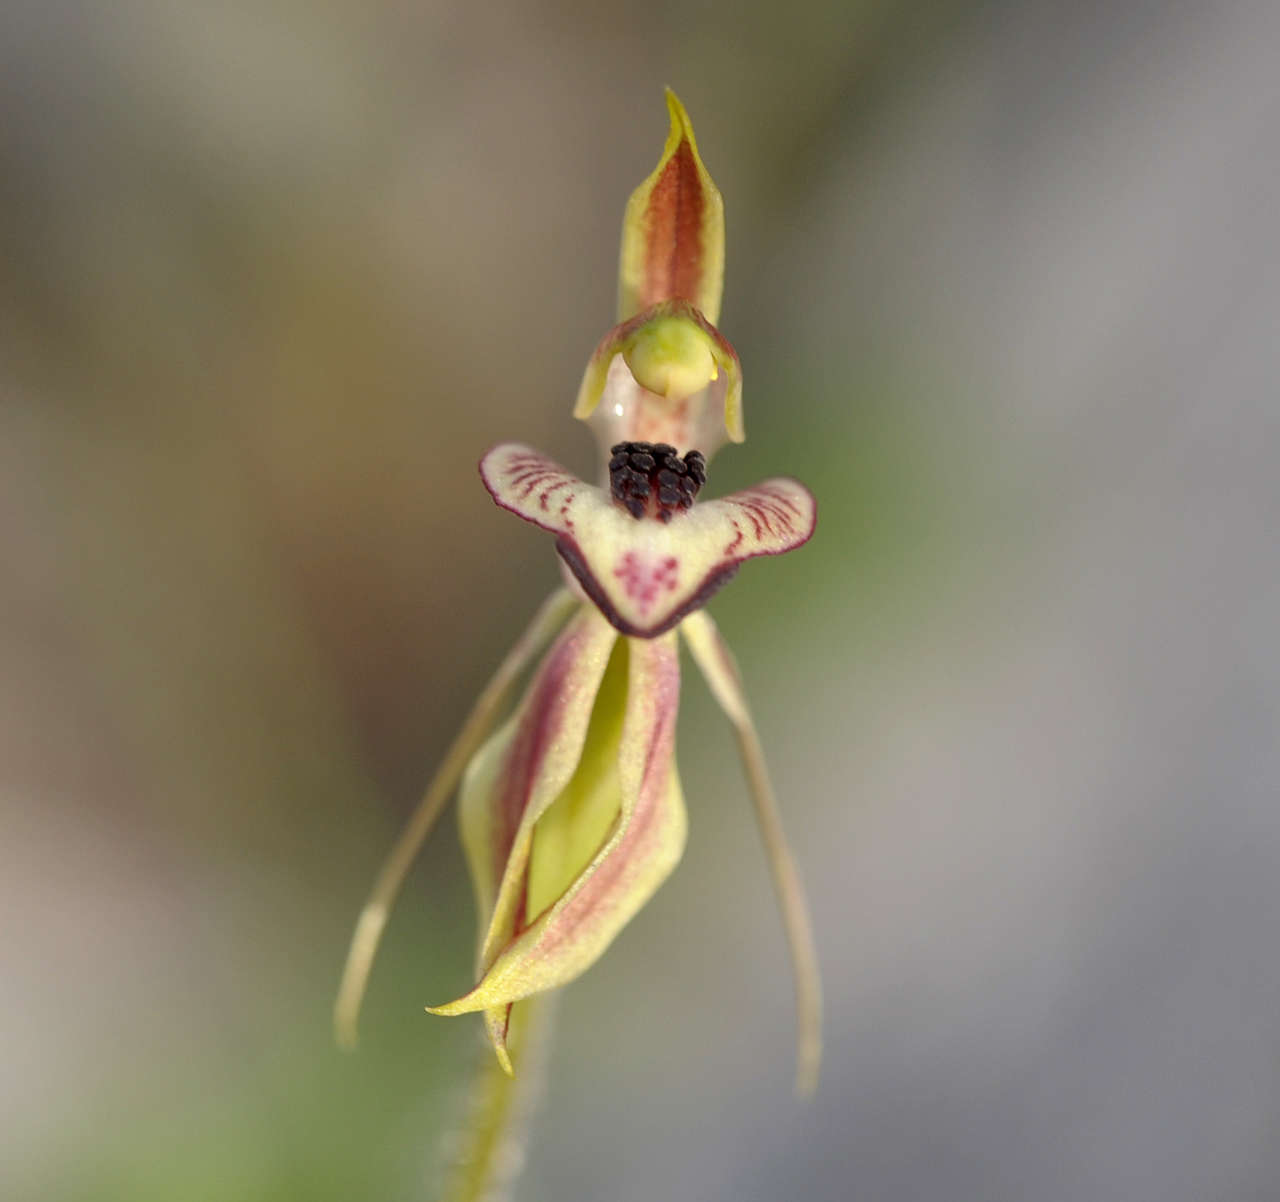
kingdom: Plantae
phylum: Tracheophyta
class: Liliopsida
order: Asparagales
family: Orchidaceae
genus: Caladenia
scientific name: Caladenia cardiochila
